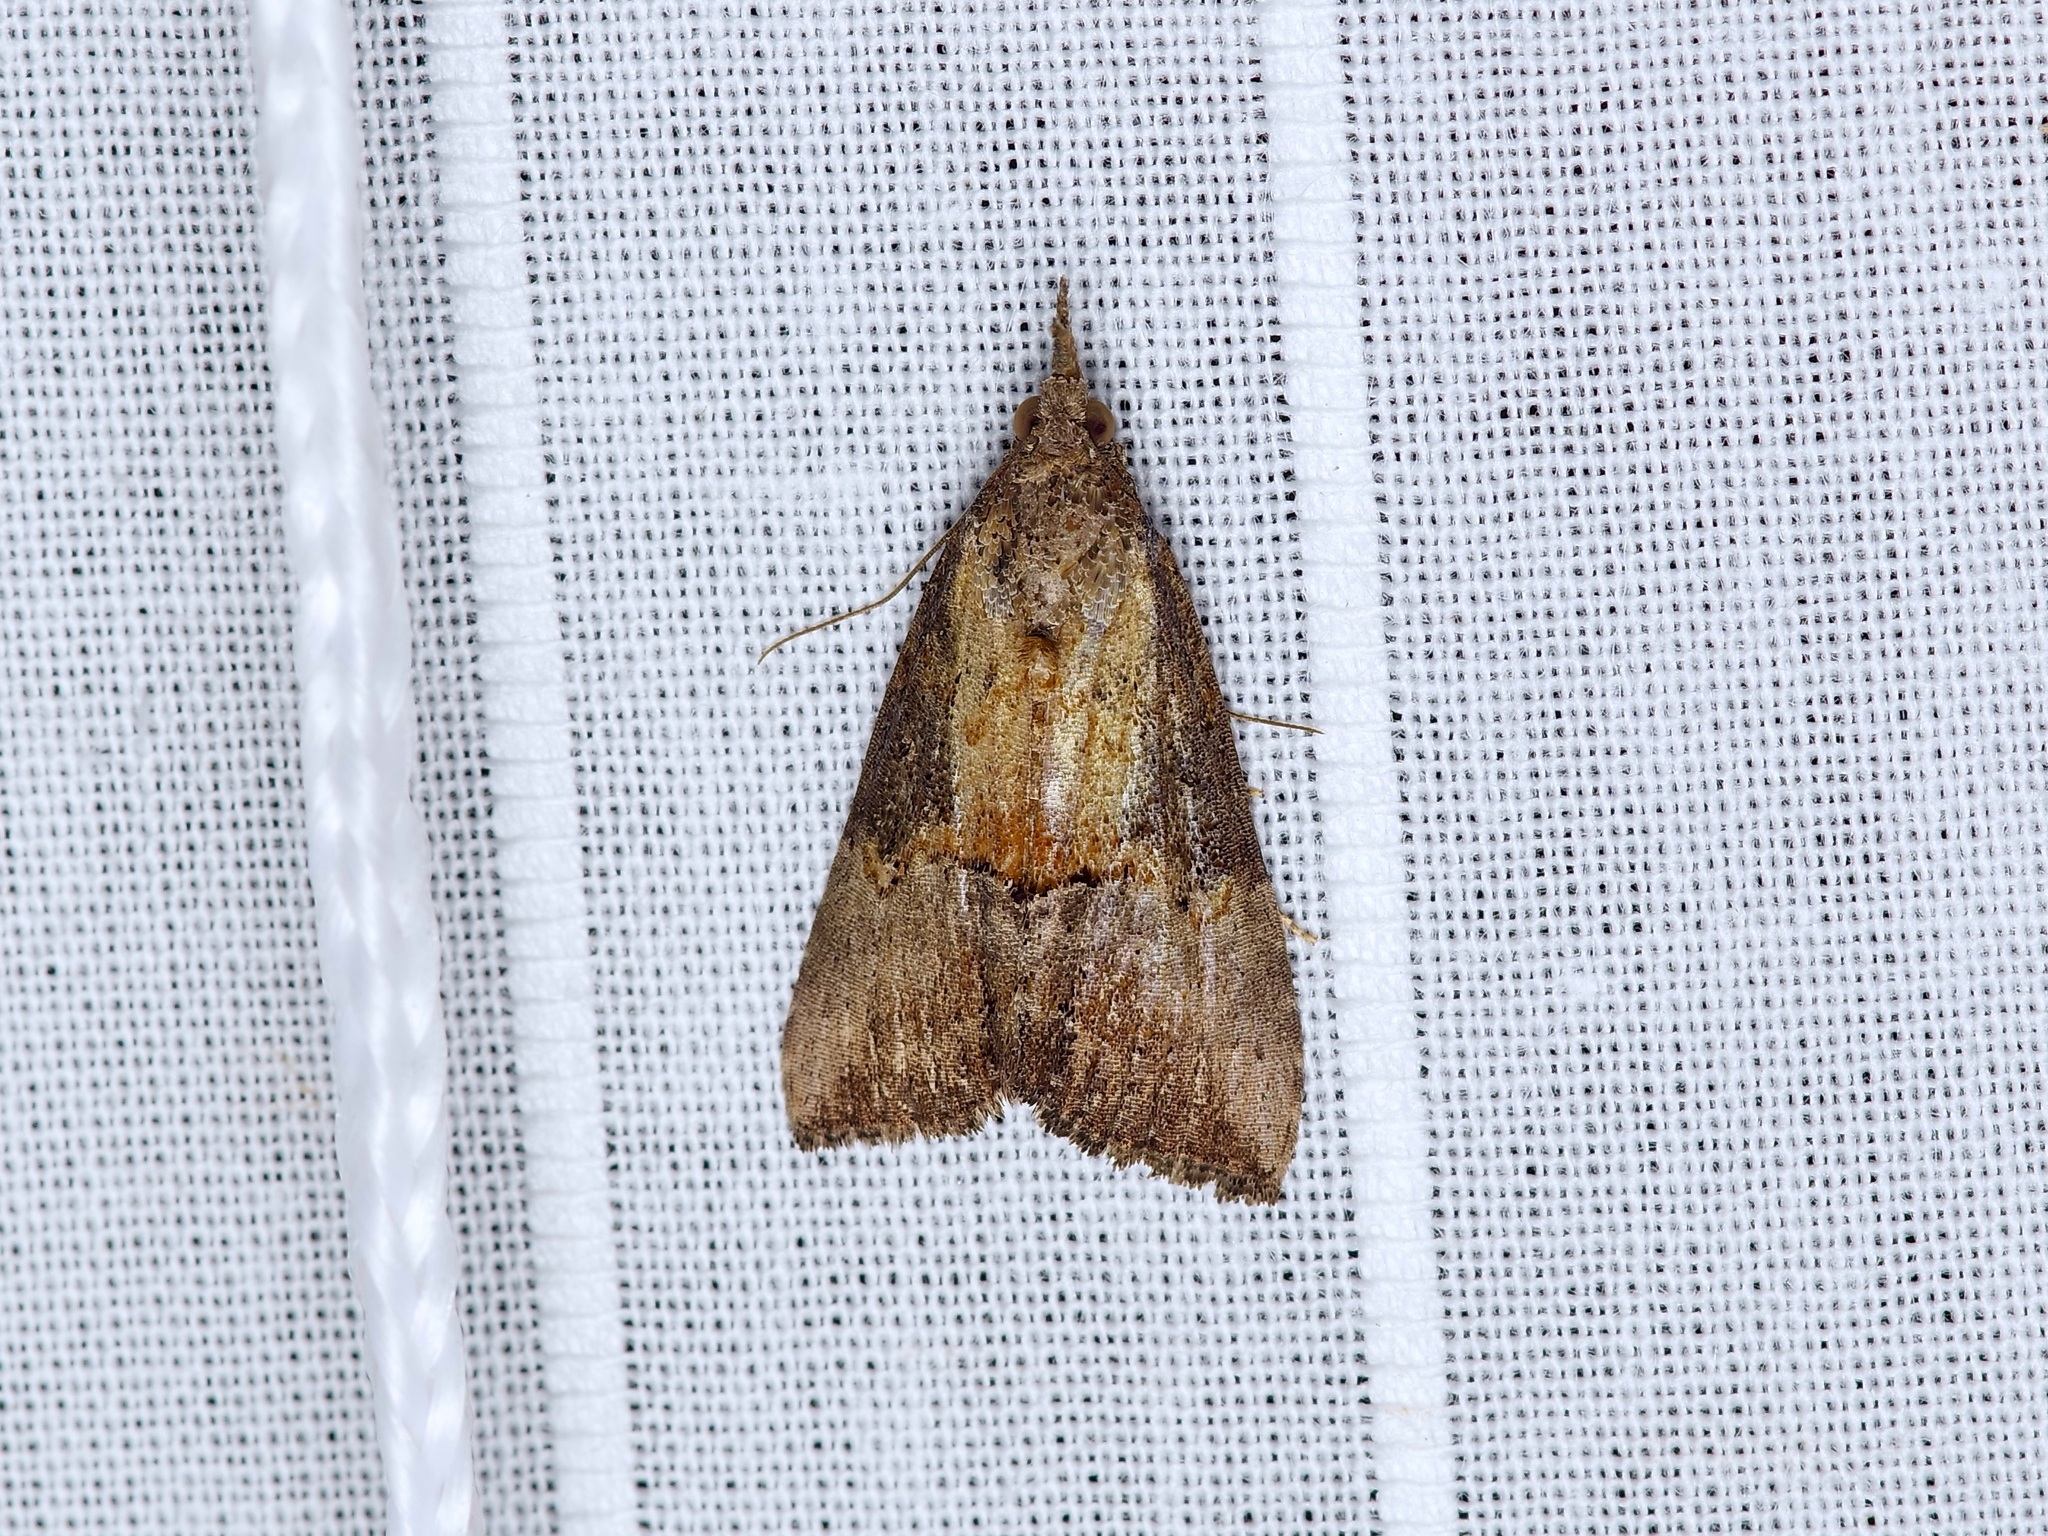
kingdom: Animalia
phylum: Arthropoda
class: Insecta
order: Lepidoptera
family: Erebidae
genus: Hypena
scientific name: Hypena scabra
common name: Green cloverworm
